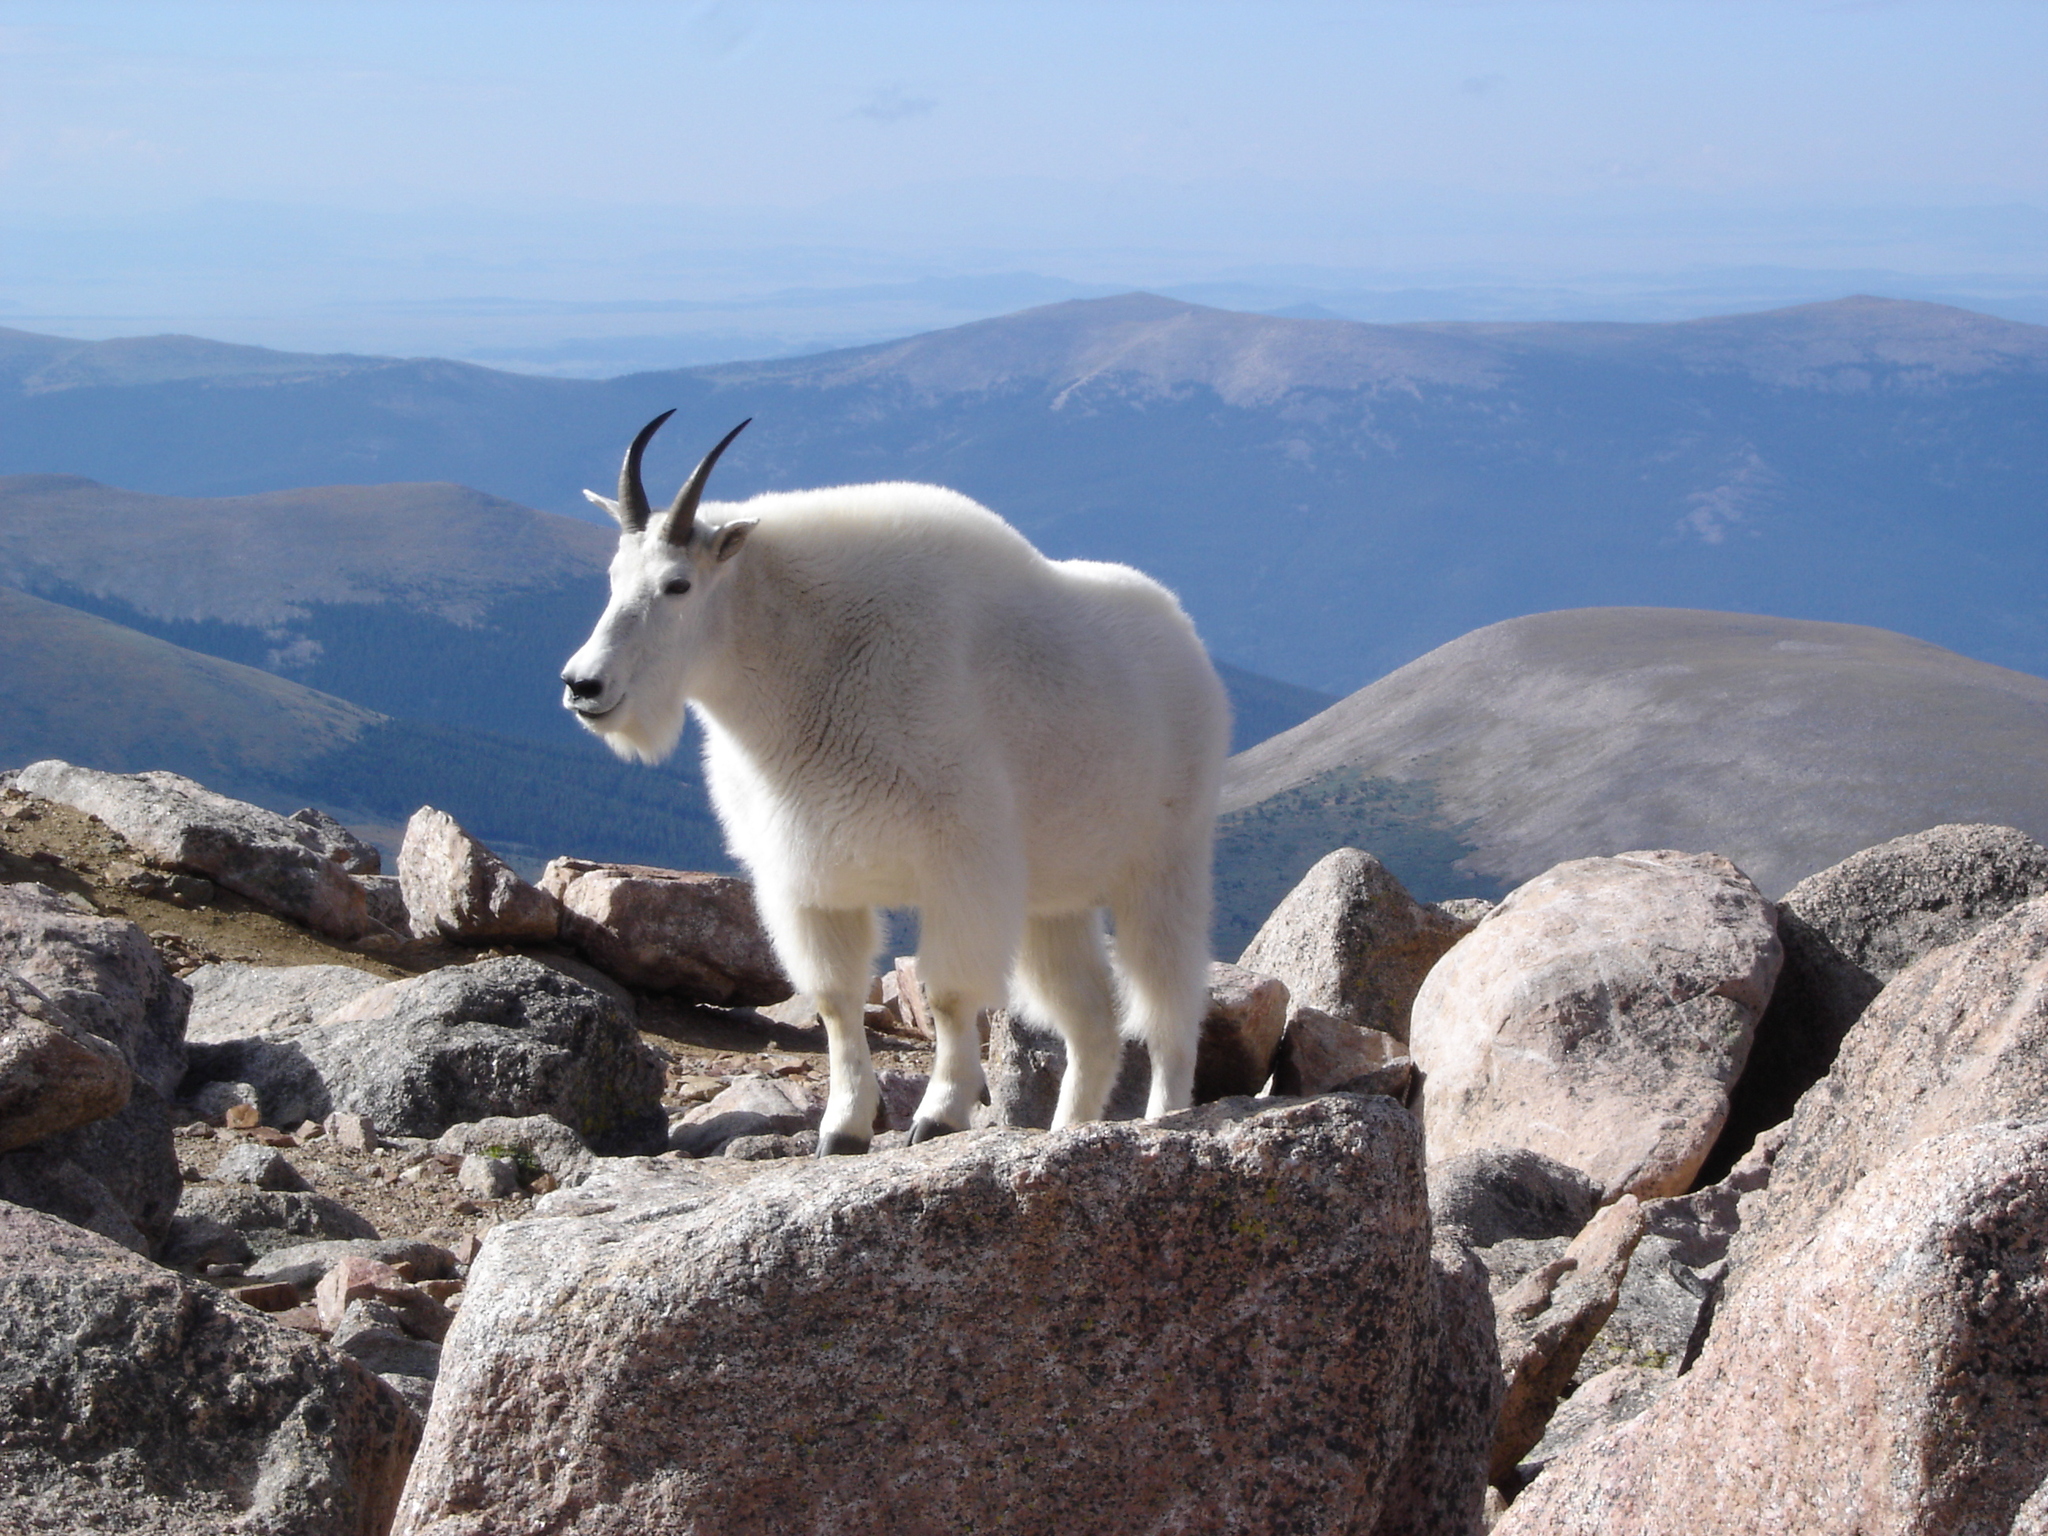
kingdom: Animalia
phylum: Chordata
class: Mammalia
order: Artiodactyla
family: Bovidae
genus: Oreamnos
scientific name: Oreamnos americanus
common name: Mountain goat
